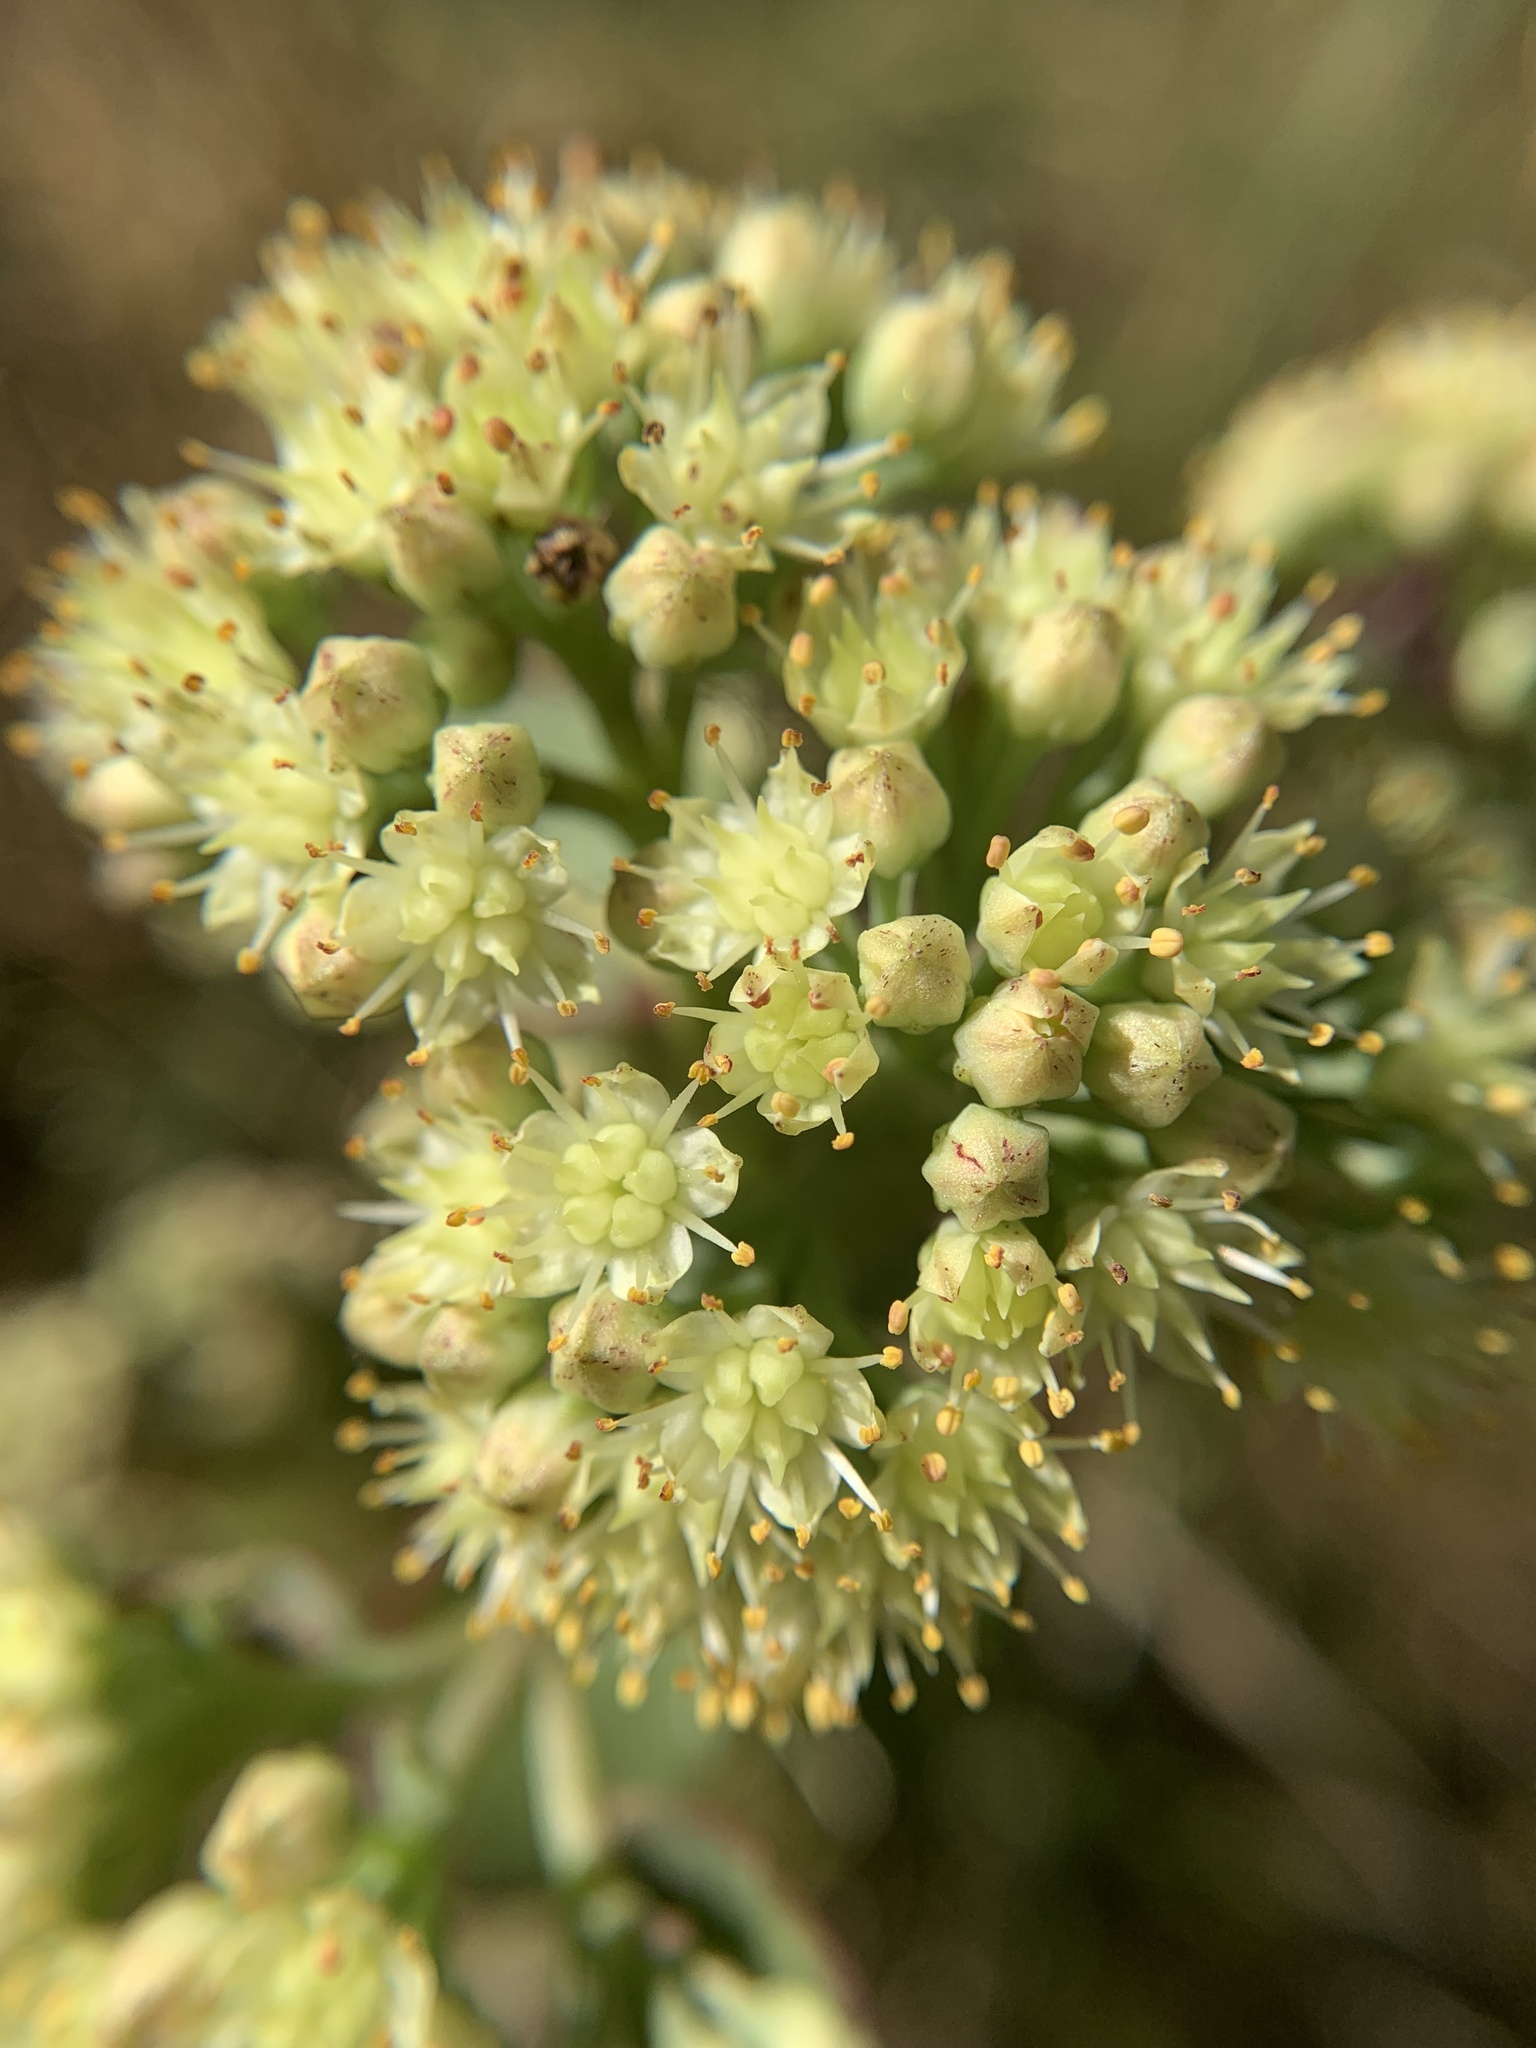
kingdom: Plantae
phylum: Tracheophyta
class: Magnoliopsida
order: Saxifragales
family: Crassulaceae
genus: Hylotelephium
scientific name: Hylotelephium maximum
